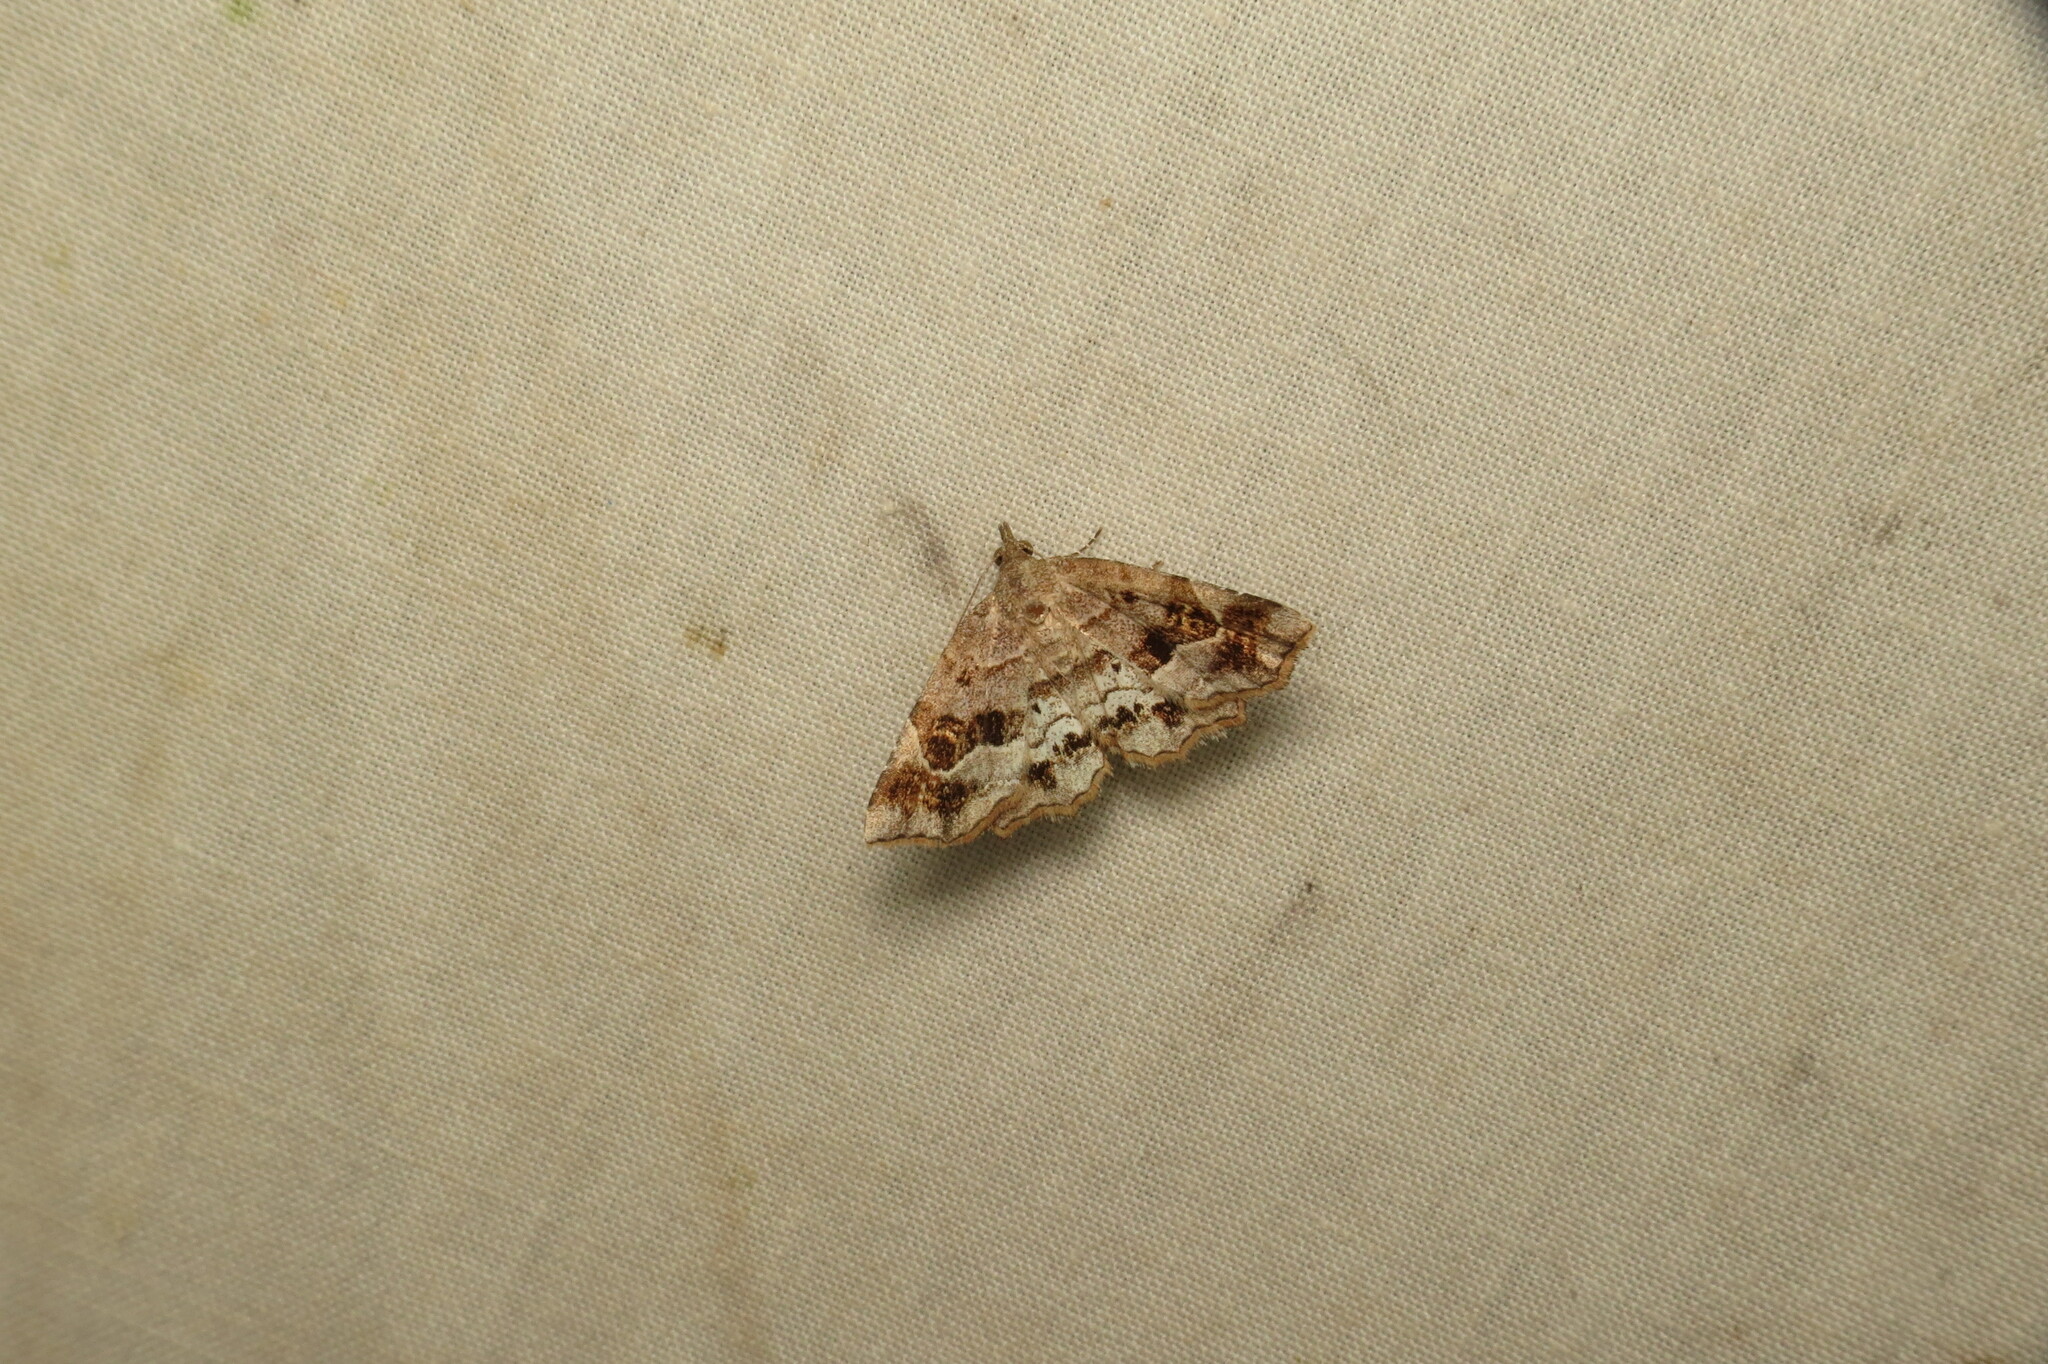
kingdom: Animalia
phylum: Arthropoda
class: Insecta
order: Lepidoptera
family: Erebidae
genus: Pangrapta
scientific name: Pangrapta decoralis
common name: Decorated owlet
